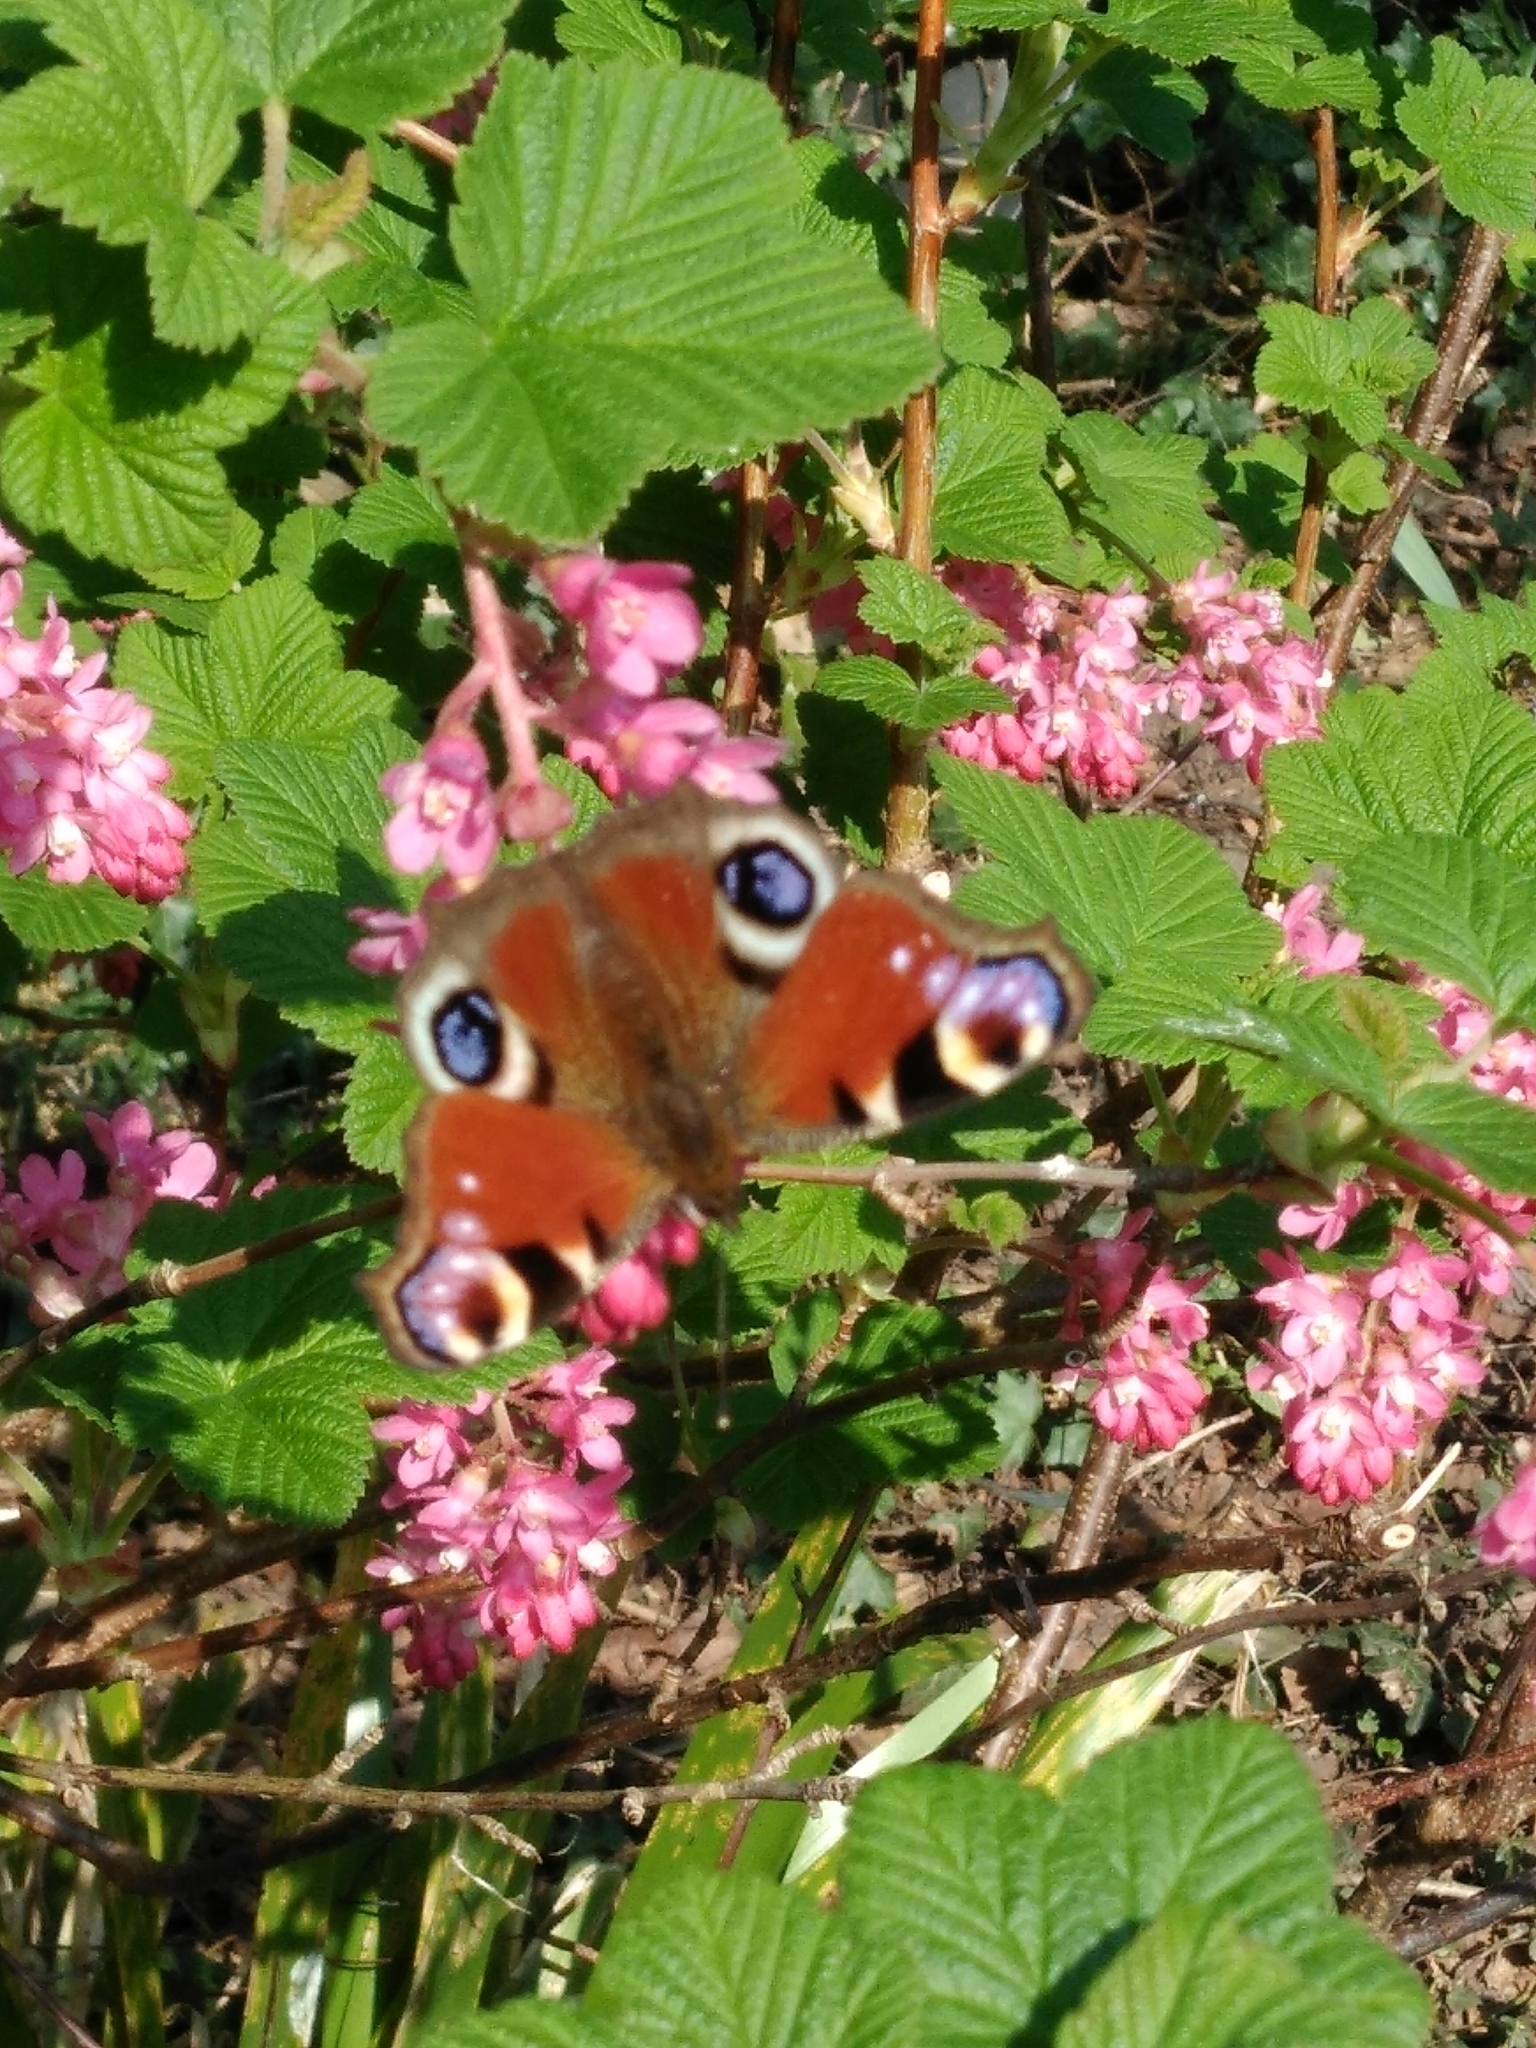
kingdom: Animalia
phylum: Arthropoda
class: Insecta
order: Lepidoptera
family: Nymphalidae
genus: Aglais
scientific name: Aglais io
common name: Peacock
